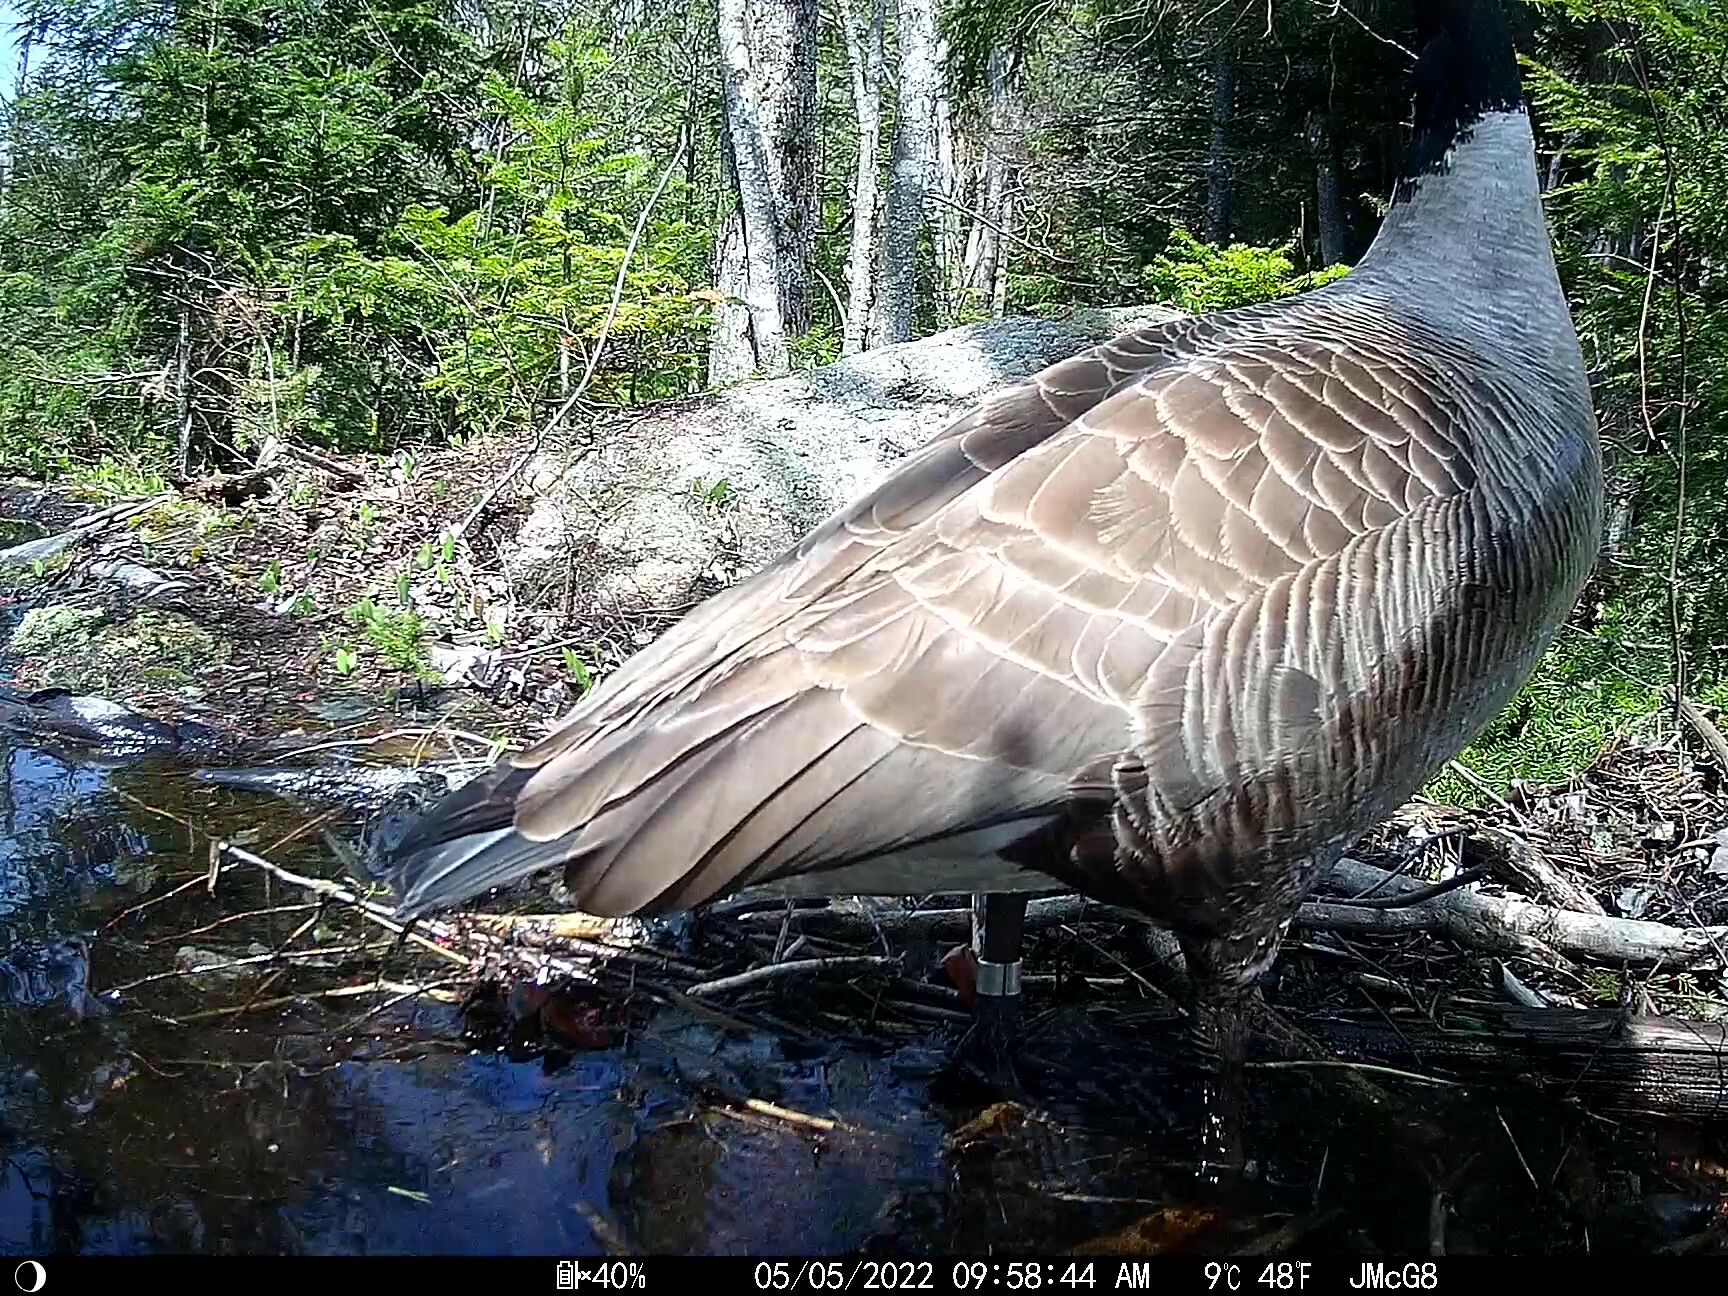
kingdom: Animalia
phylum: Chordata
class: Aves
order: Anseriformes
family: Anatidae
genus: Branta
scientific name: Branta canadensis
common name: Canada goose
